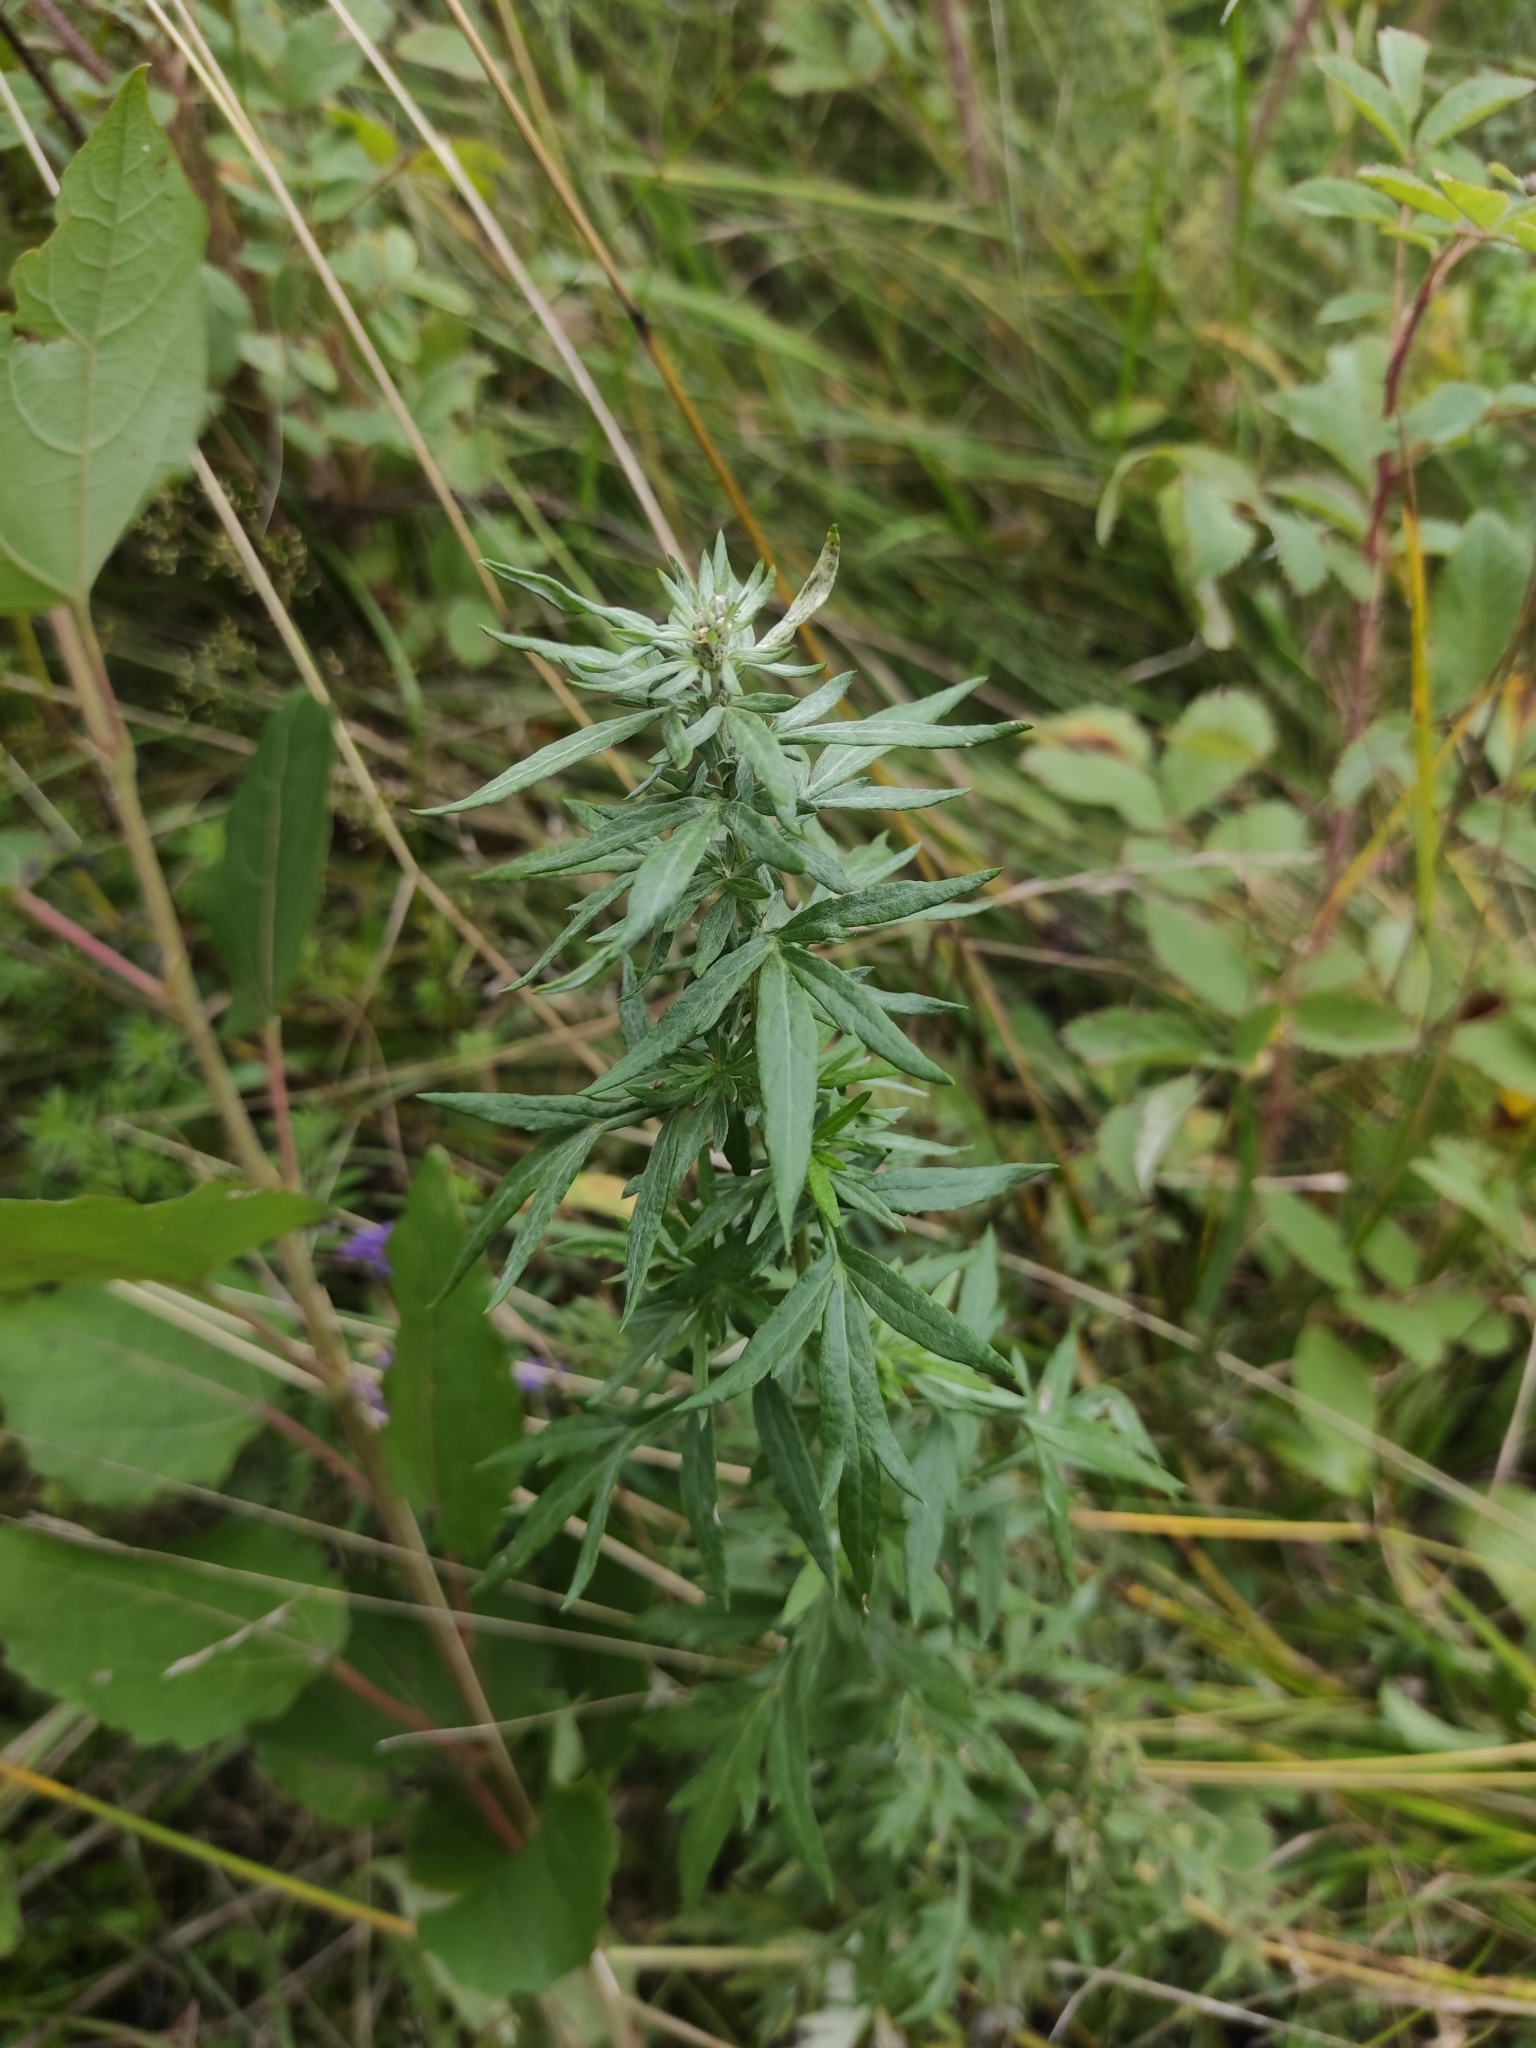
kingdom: Plantae
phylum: Tracheophyta
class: Magnoliopsida
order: Asterales
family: Asteraceae
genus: Artemisia
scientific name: Artemisia vulgaris
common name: Mugwort
